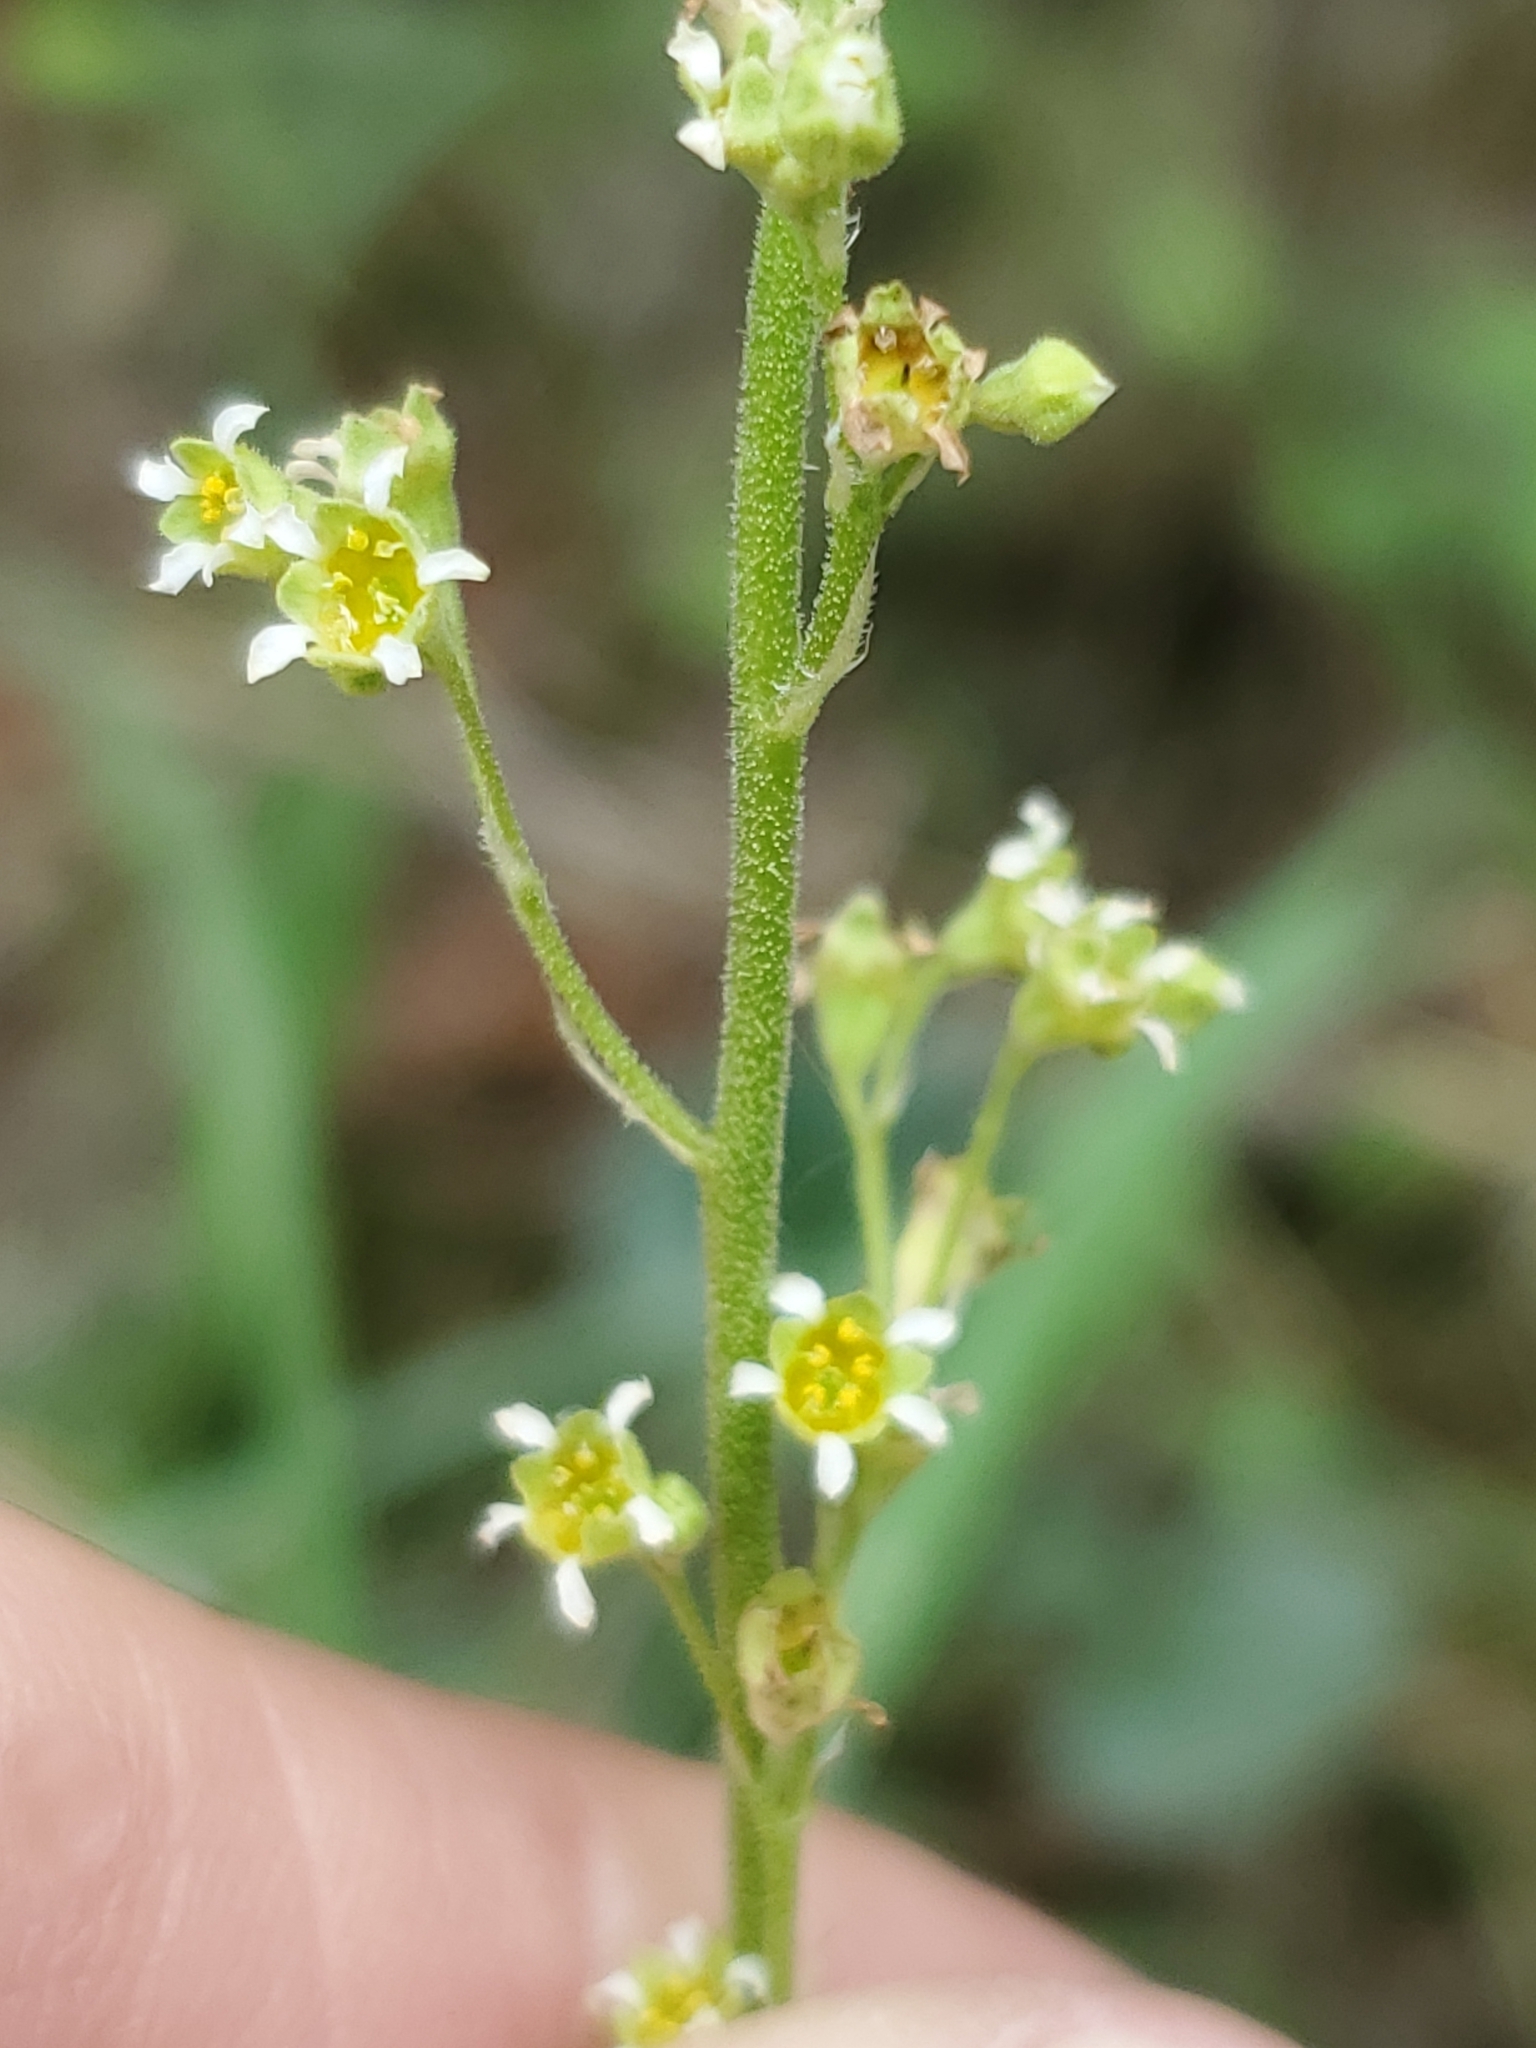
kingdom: Plantae
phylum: Tracheophyta
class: Magnoliopsida
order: Saxifragales
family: Saxifragaceae
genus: Heuchera
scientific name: Heuchera parvifolia
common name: Common alumroot
